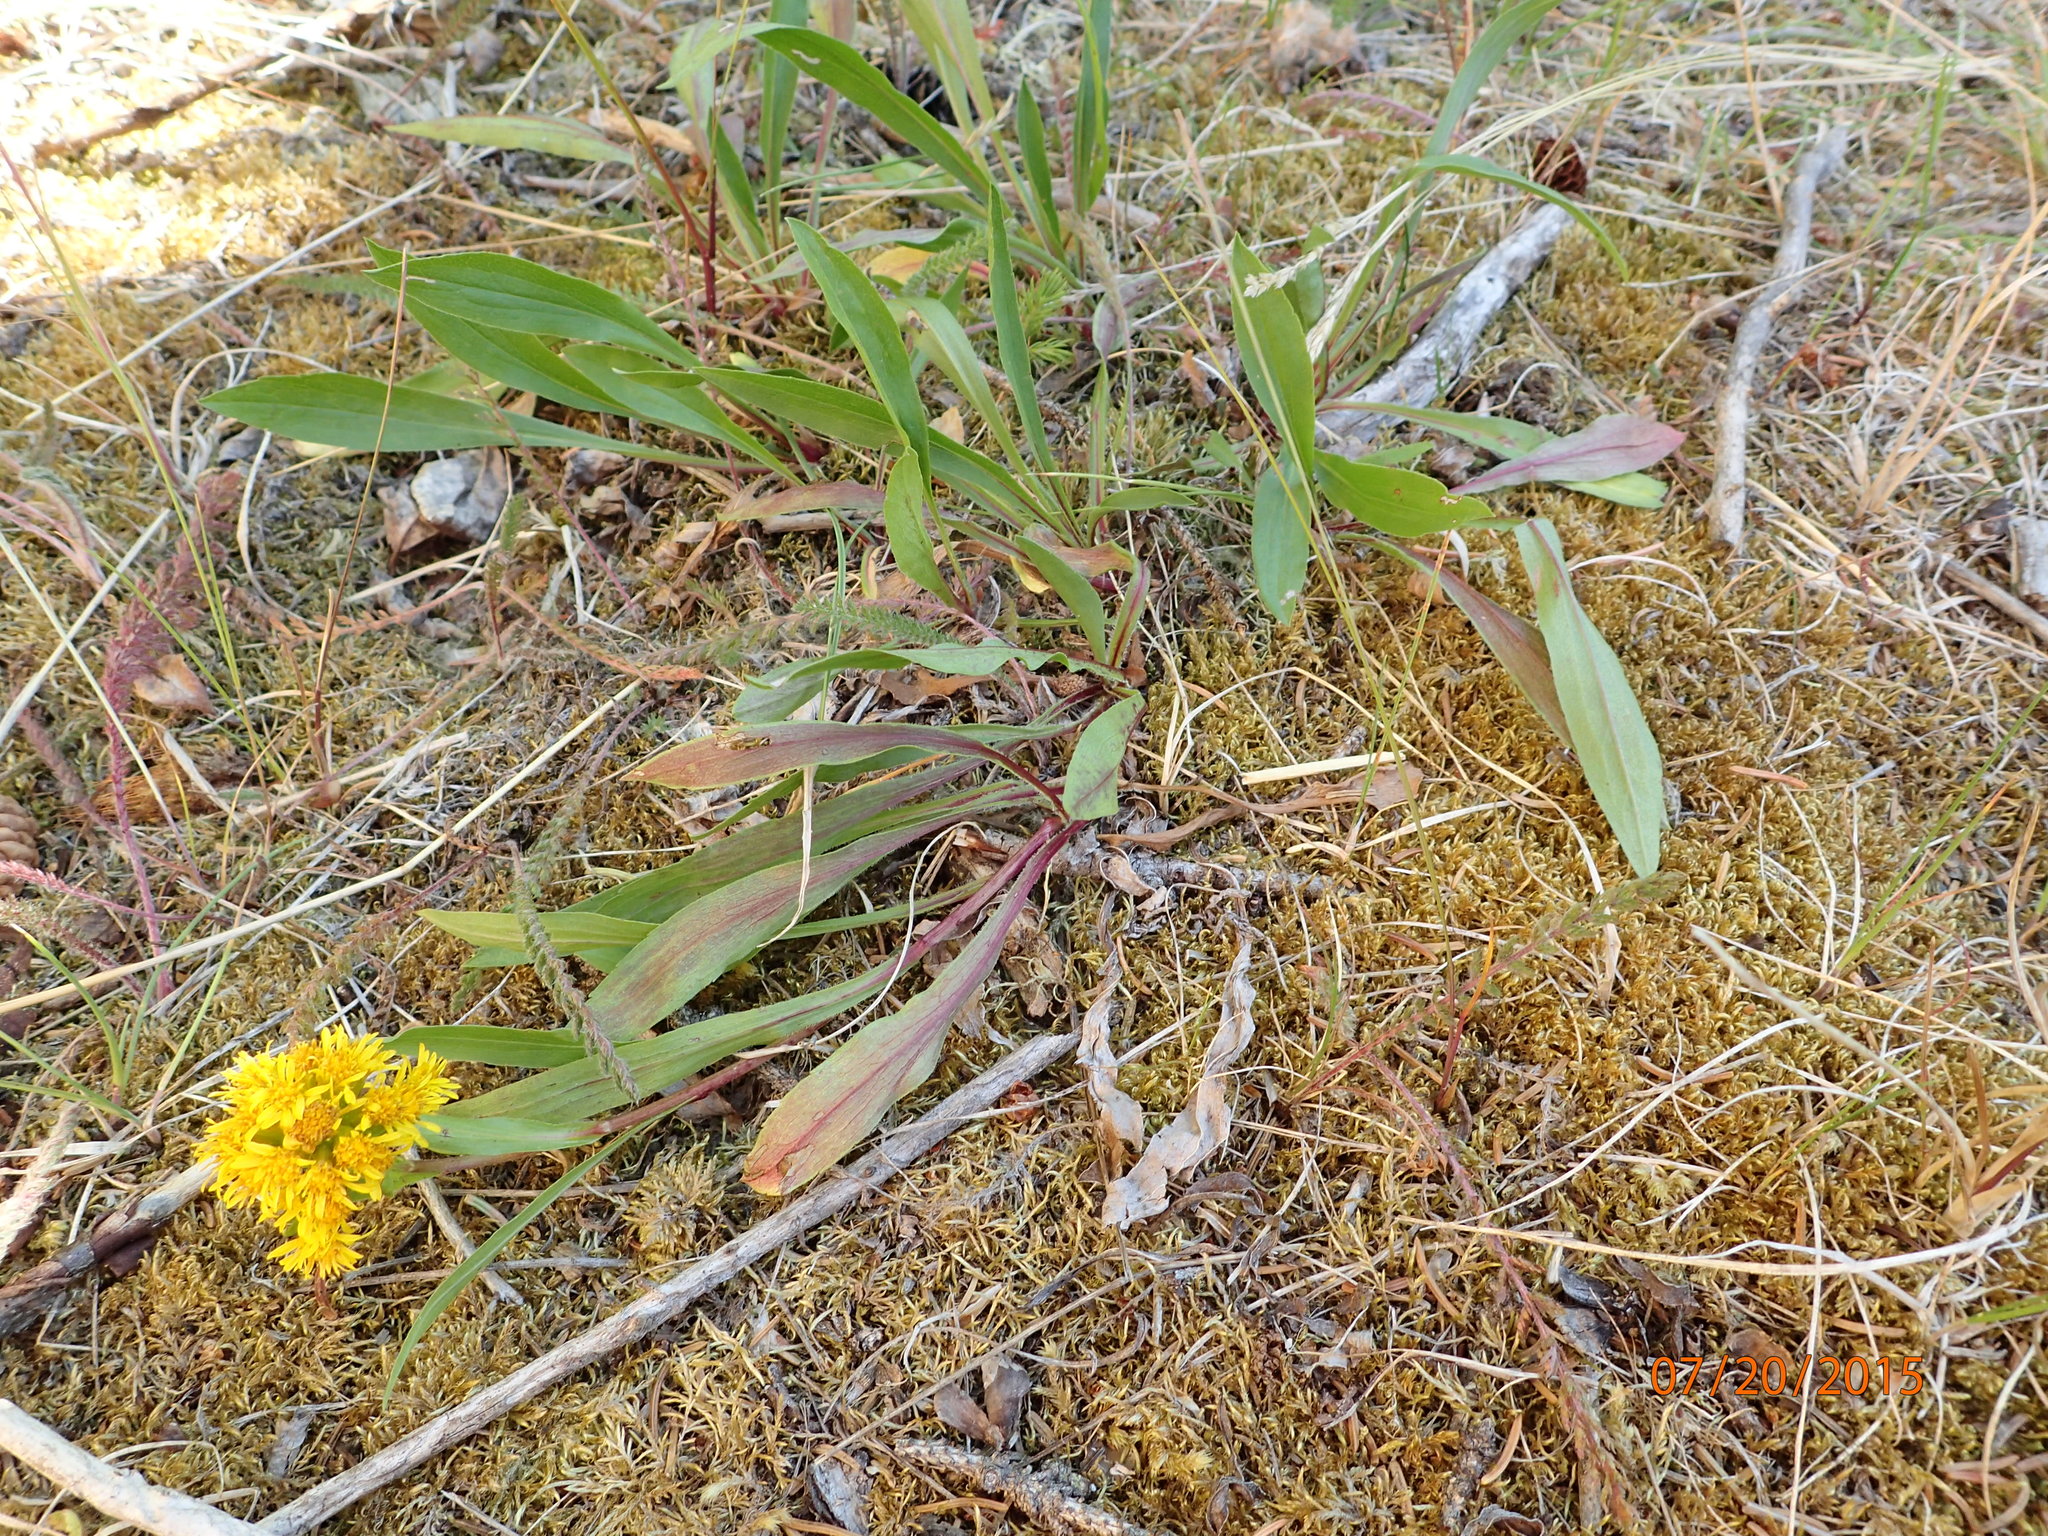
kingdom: Plantae
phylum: Tracheophyta
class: Magnoliopsida
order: Asterales
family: Asteraceae
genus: Solidago
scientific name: Solidago multiradiata
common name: Northern goldenrod
